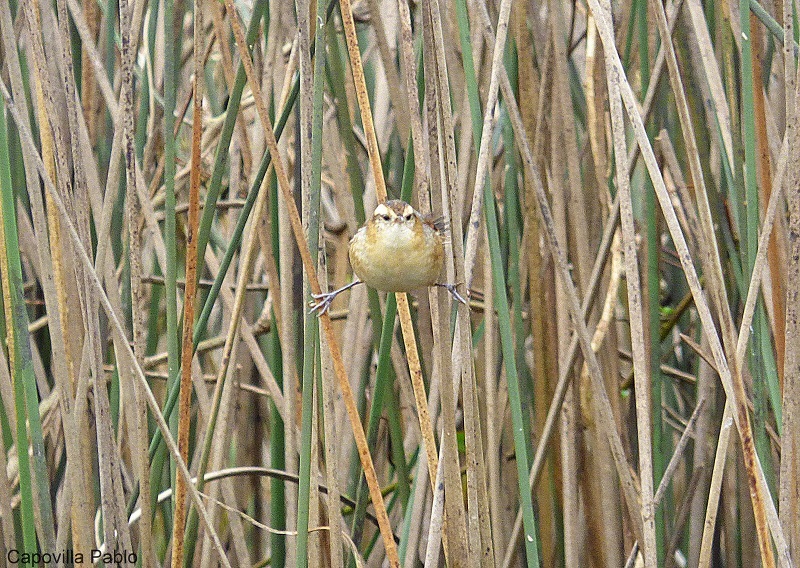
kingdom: Animalia
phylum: Chordata
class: Aves
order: Passeriformes
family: Furnariidae
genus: Phleocryptes
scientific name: Phleocryptes melanops
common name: Wren-like rushbird
